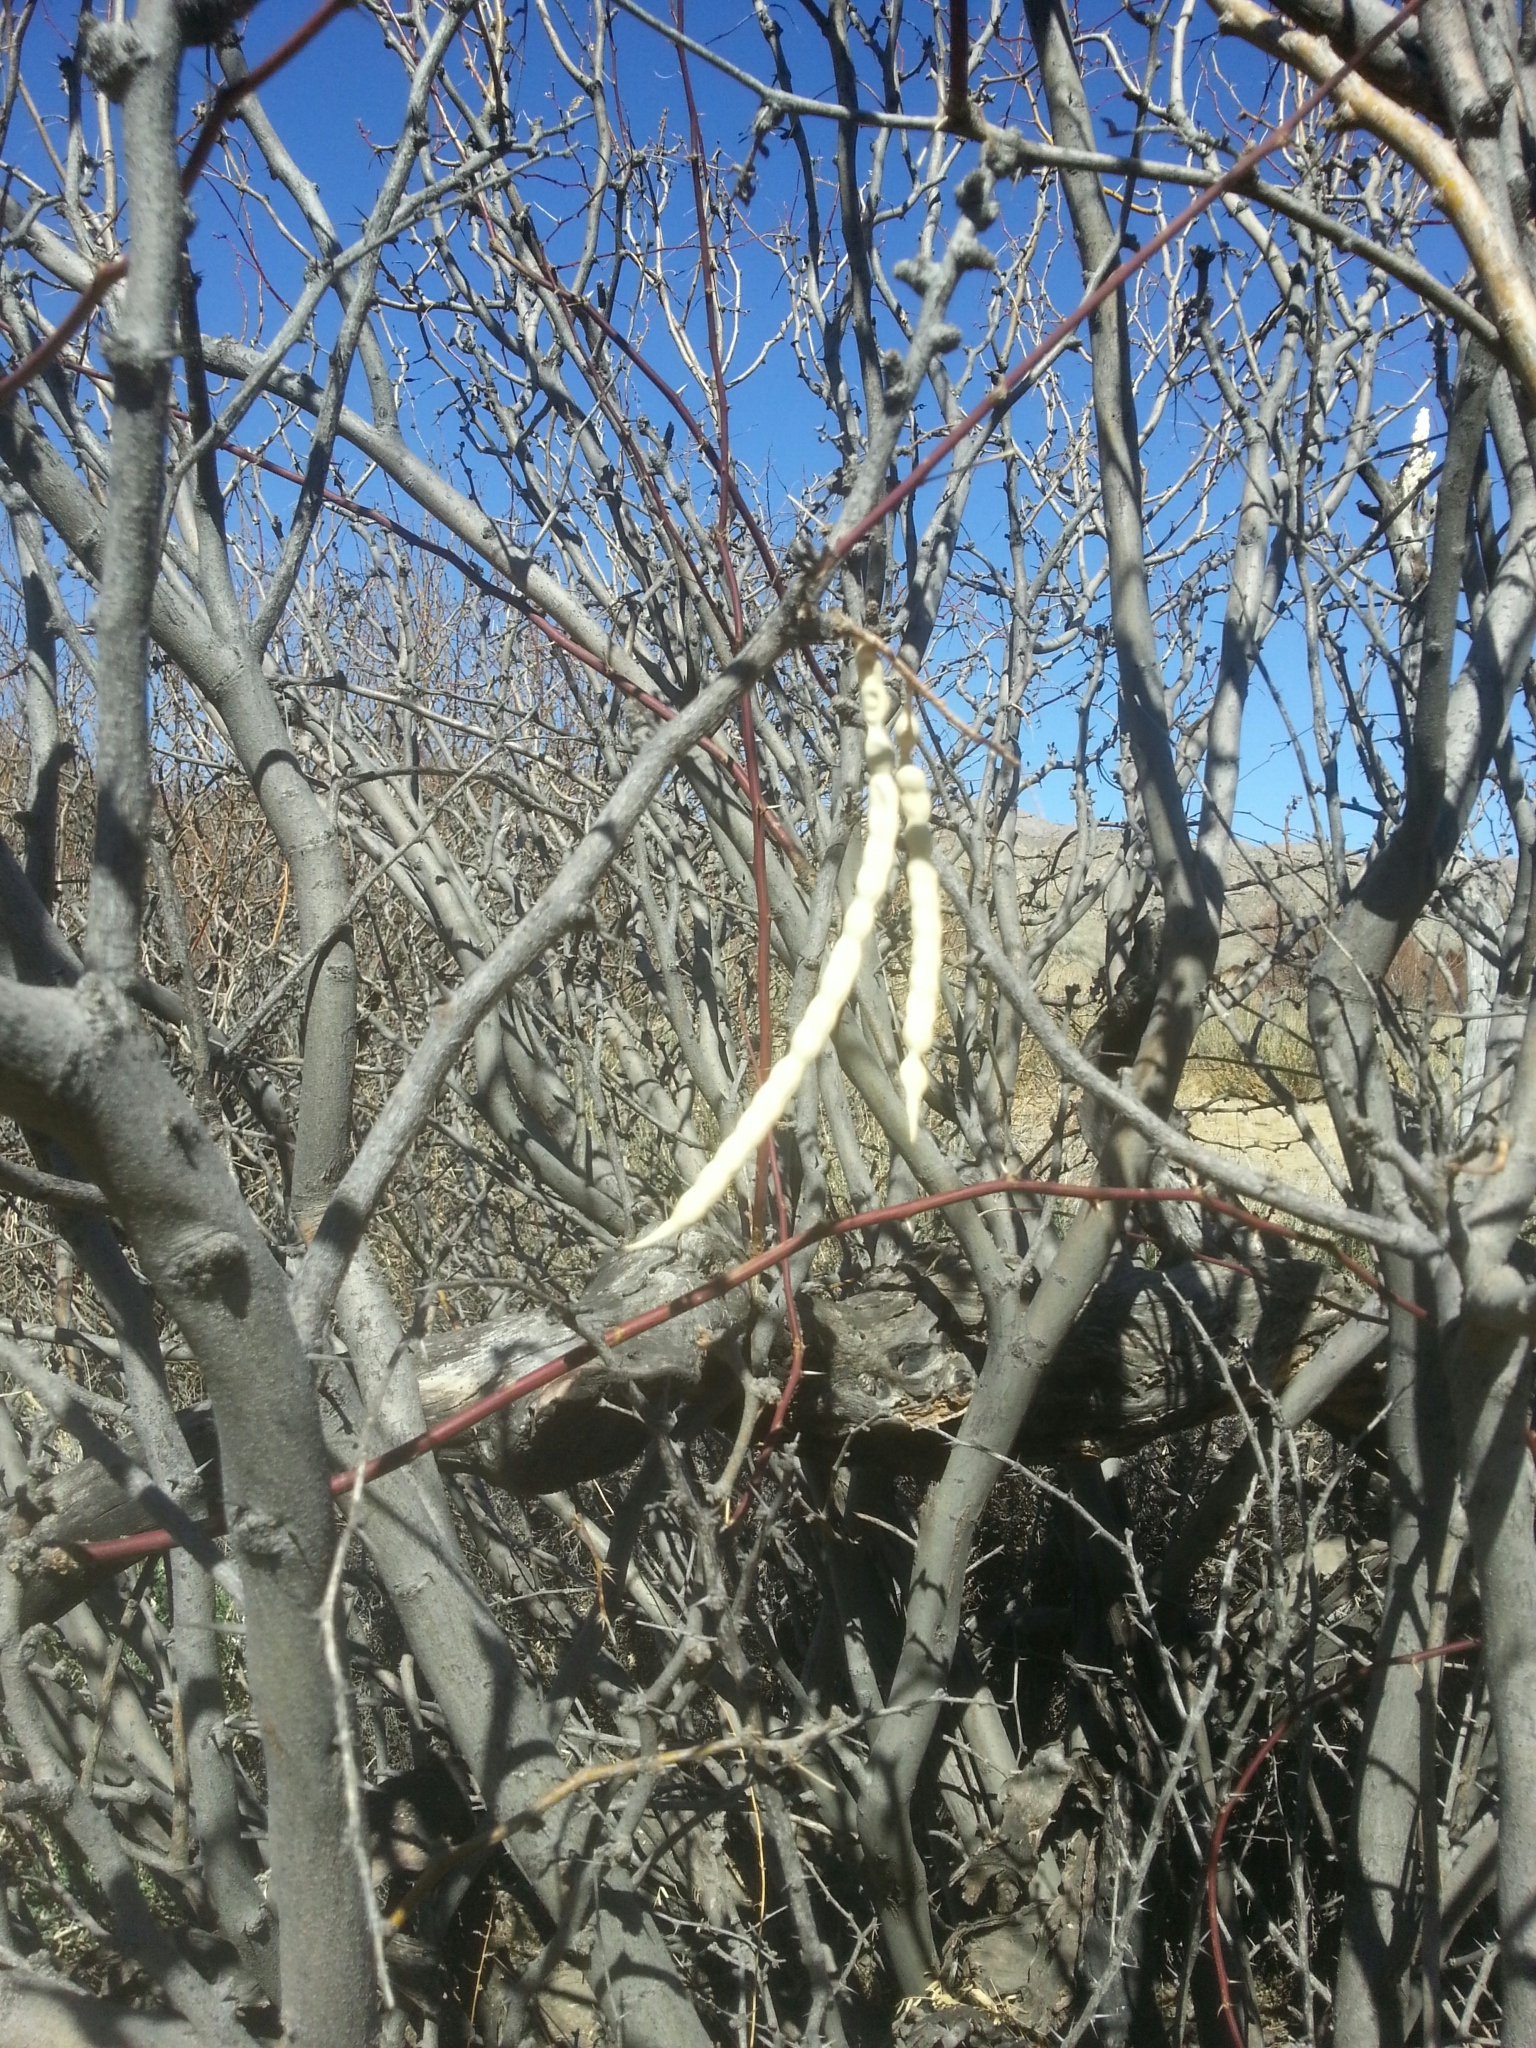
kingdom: Plantae
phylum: Tracheophyta
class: Magnoliopsida
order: Fabales
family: Fabaceae
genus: Prosopis
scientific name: Prosopis pubescens
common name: Screw-bean
